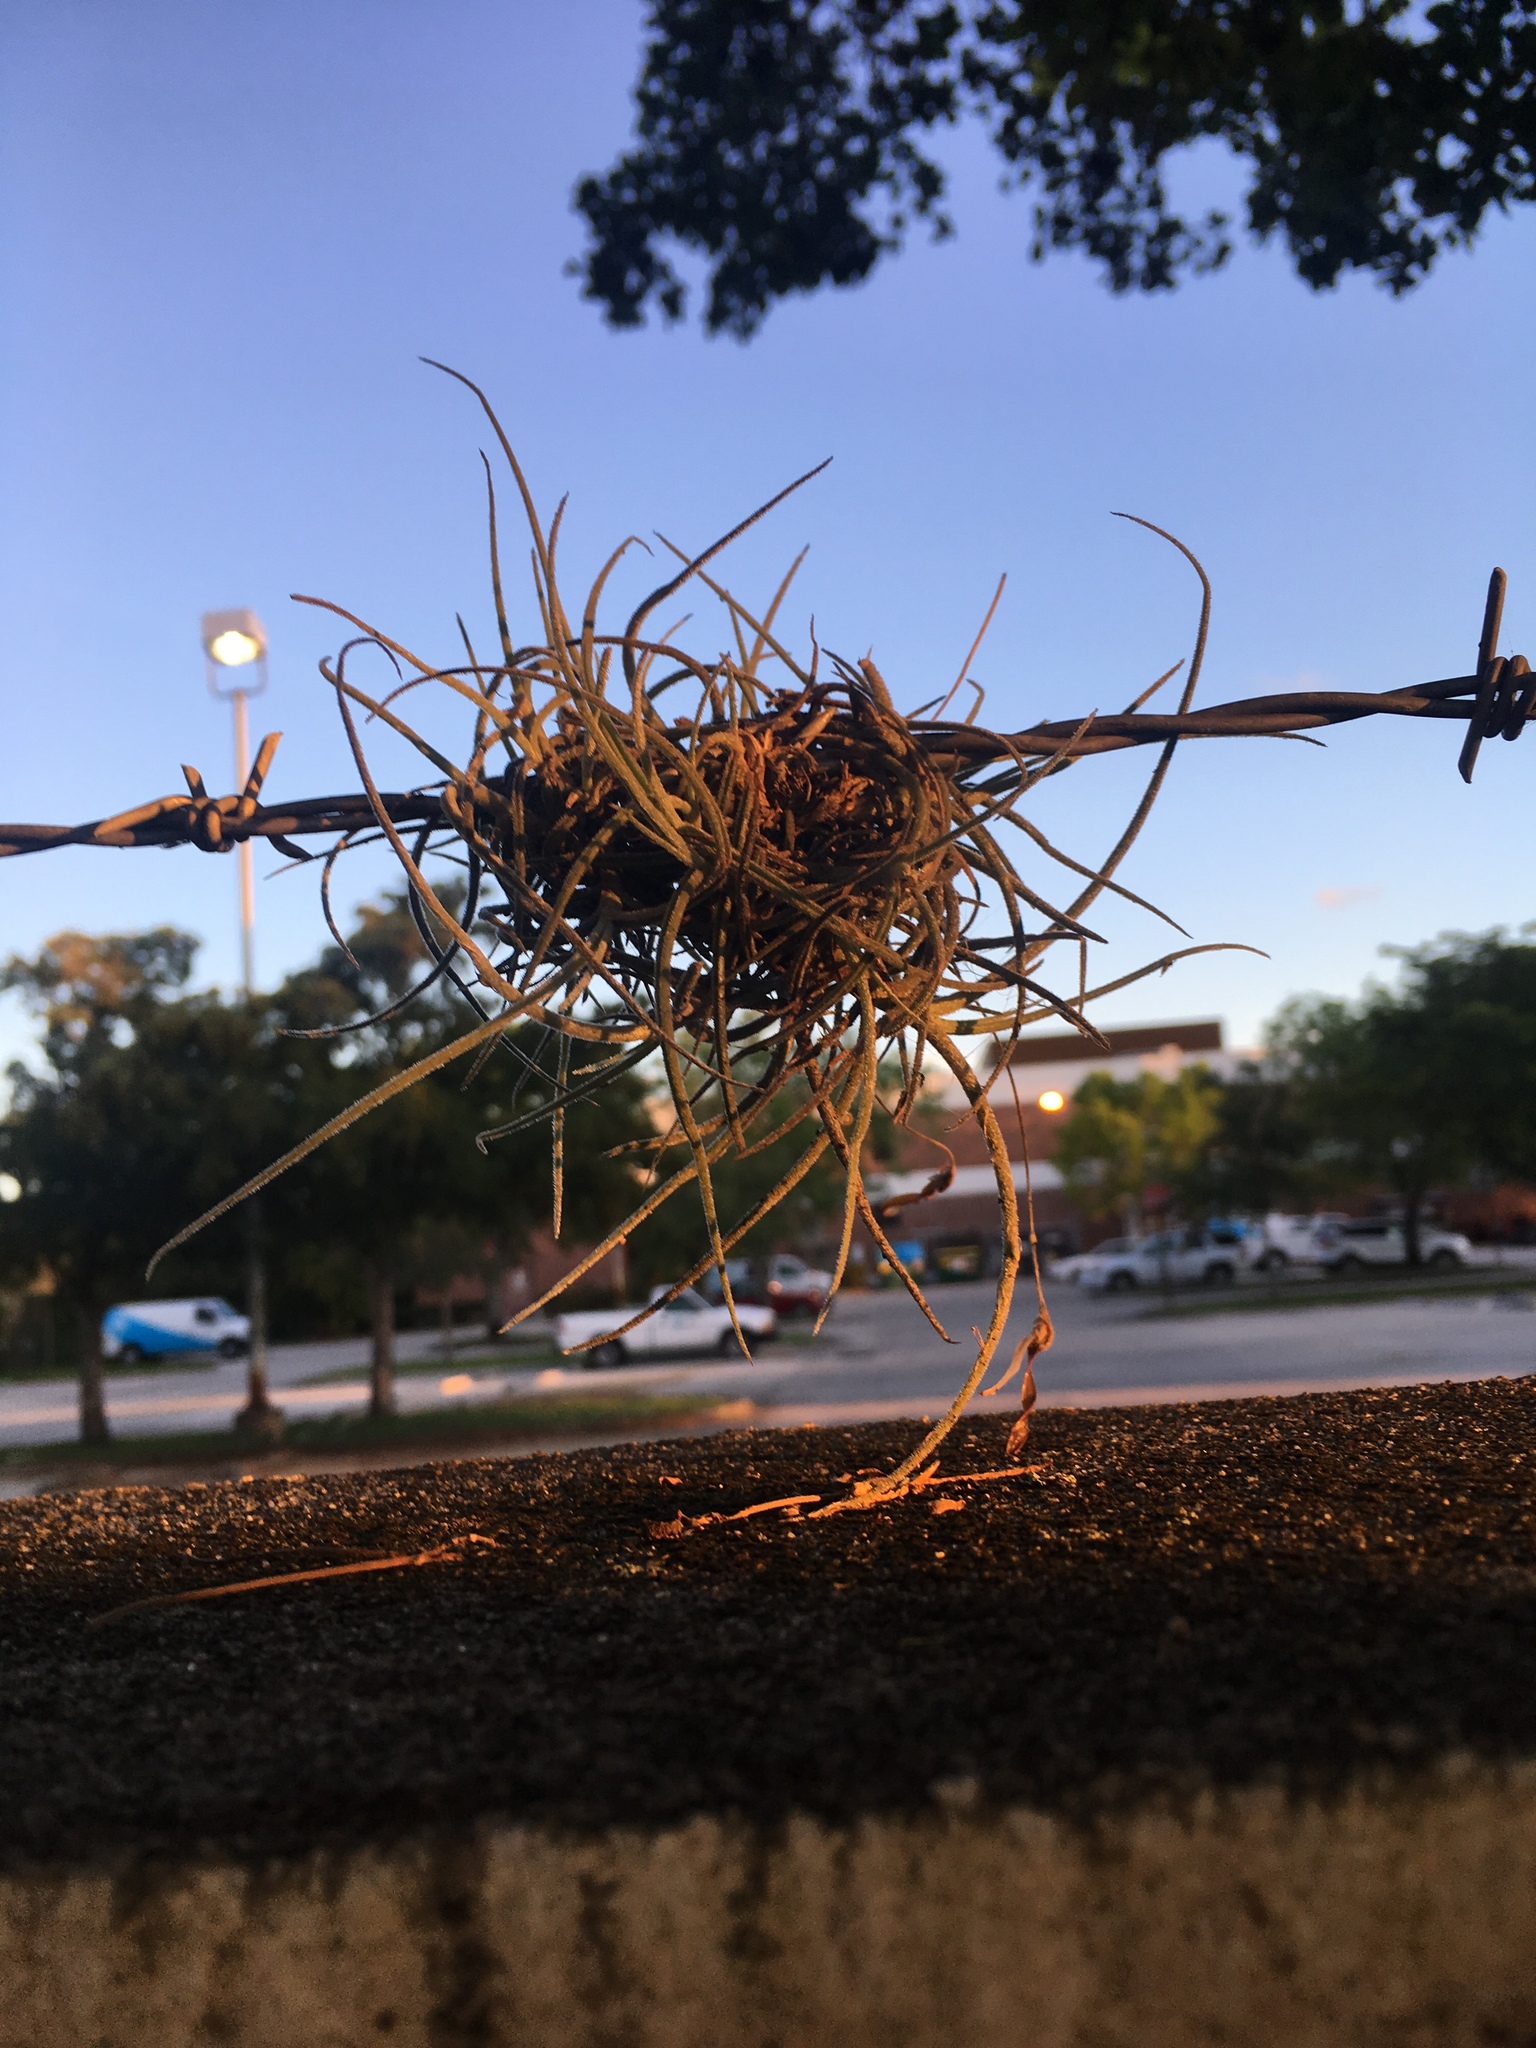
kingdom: Plantae
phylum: Tracheophyta
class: Liliopsida
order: Poales
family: Bromeliaceae
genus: Tillandsia
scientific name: Tillandsia recurvata
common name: Small ballmoss
